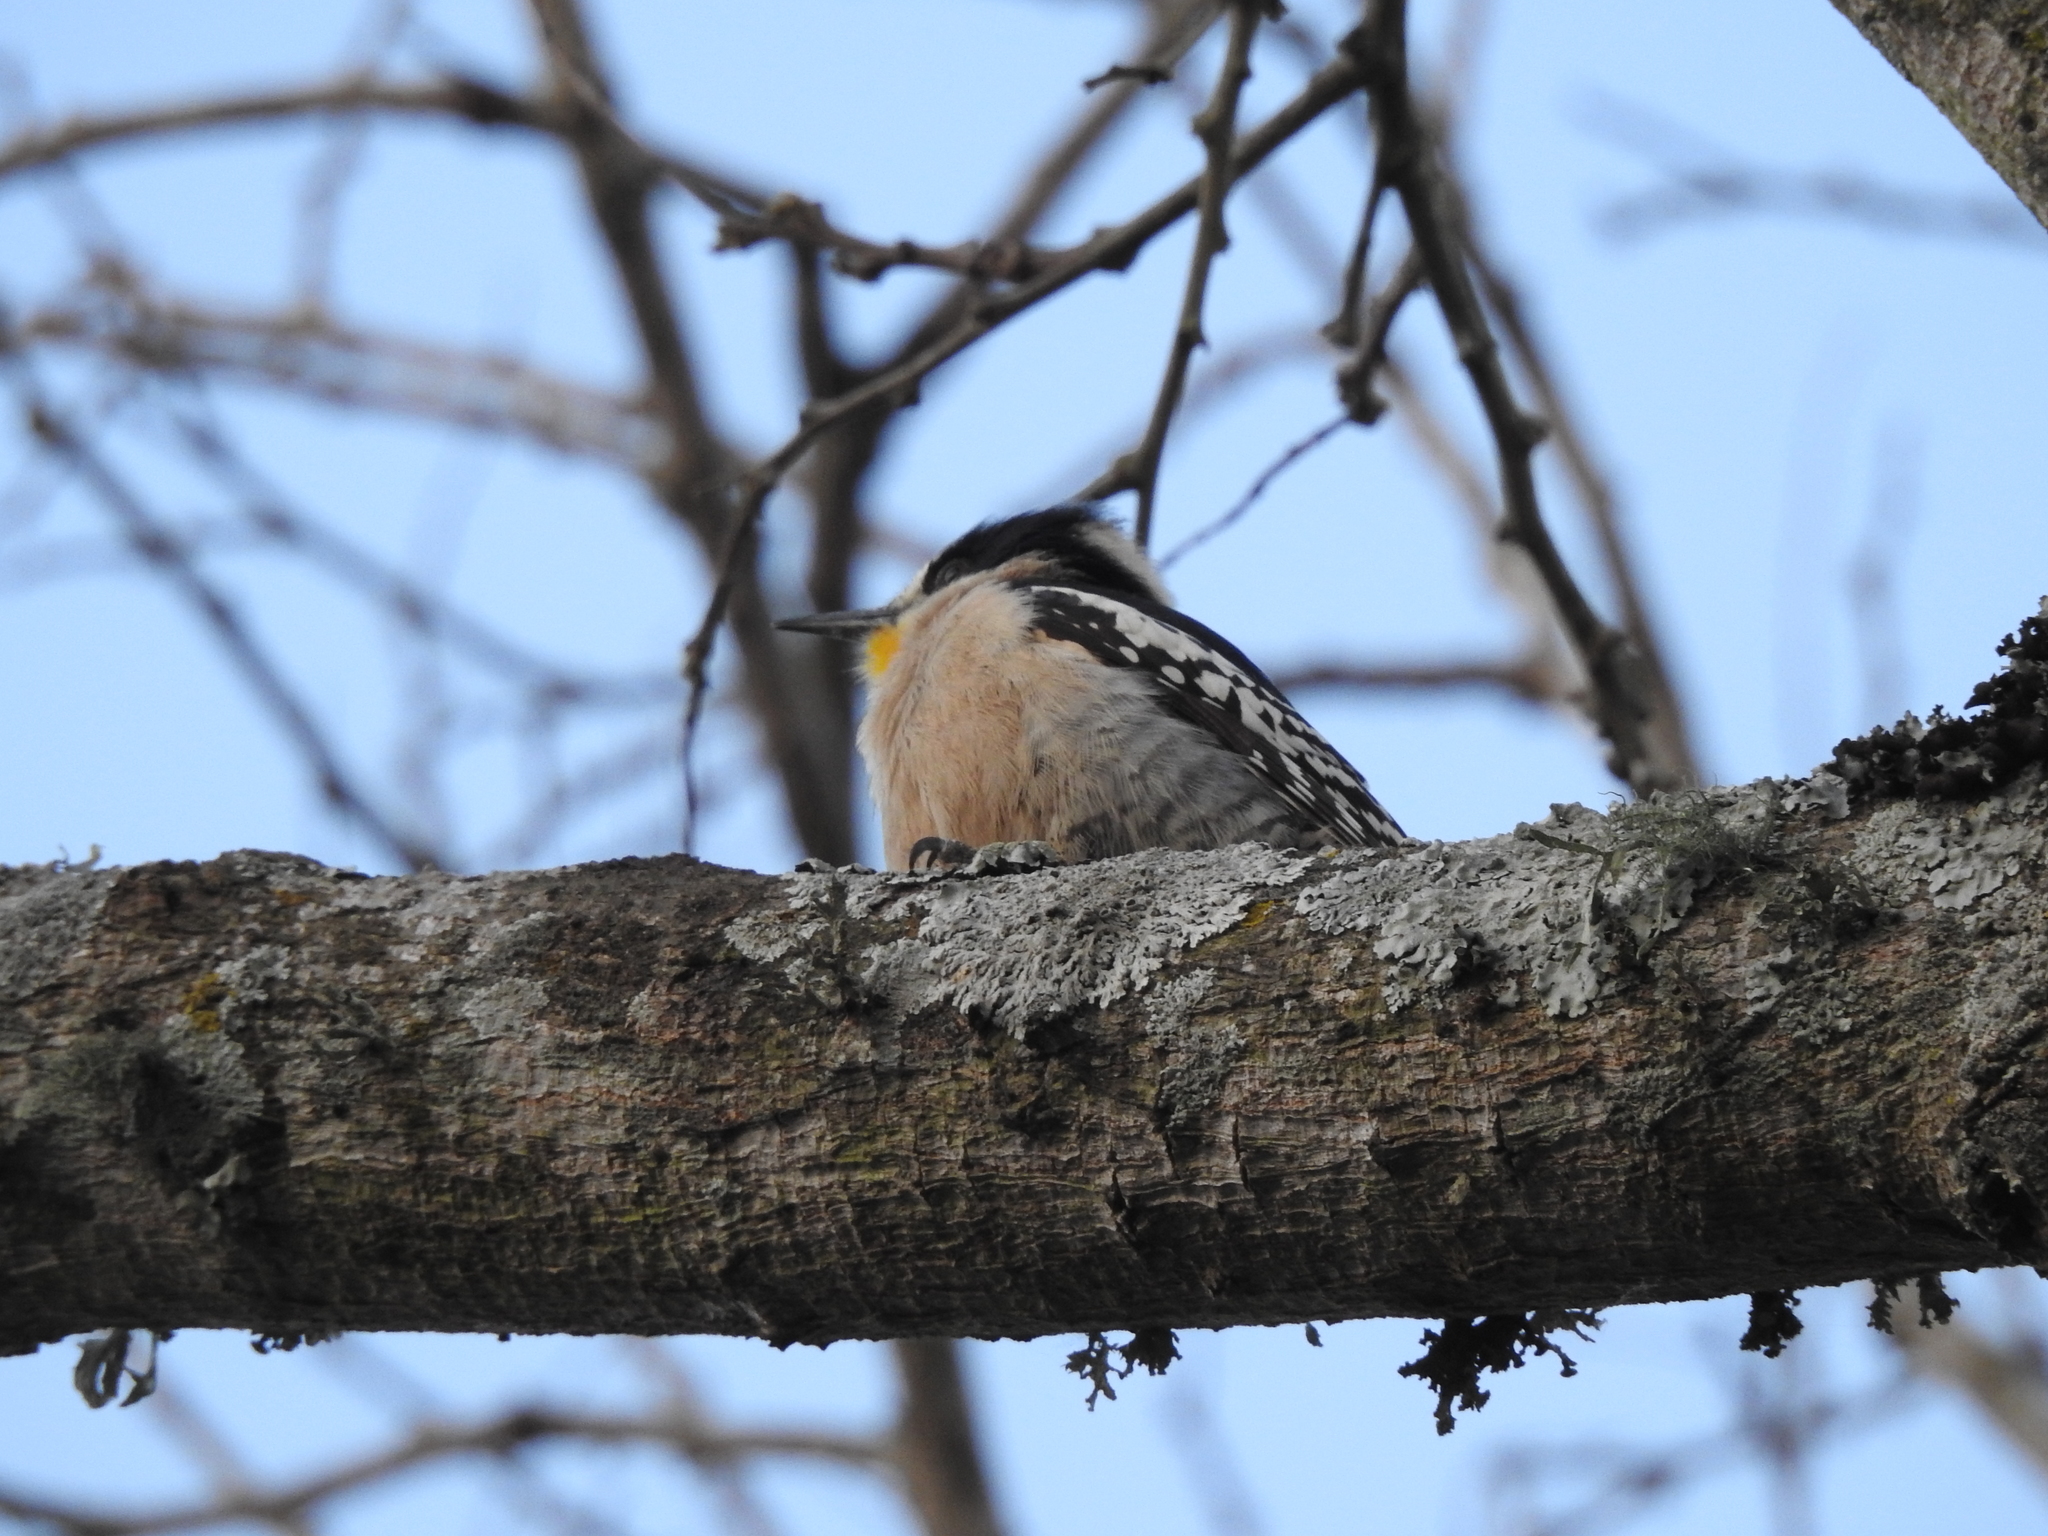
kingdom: Animalia
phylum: Chordata
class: Aves
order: Piciformes
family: Picidae
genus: Melanerpes
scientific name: Melanerpes cactorum
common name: White-fronted woodpecker
